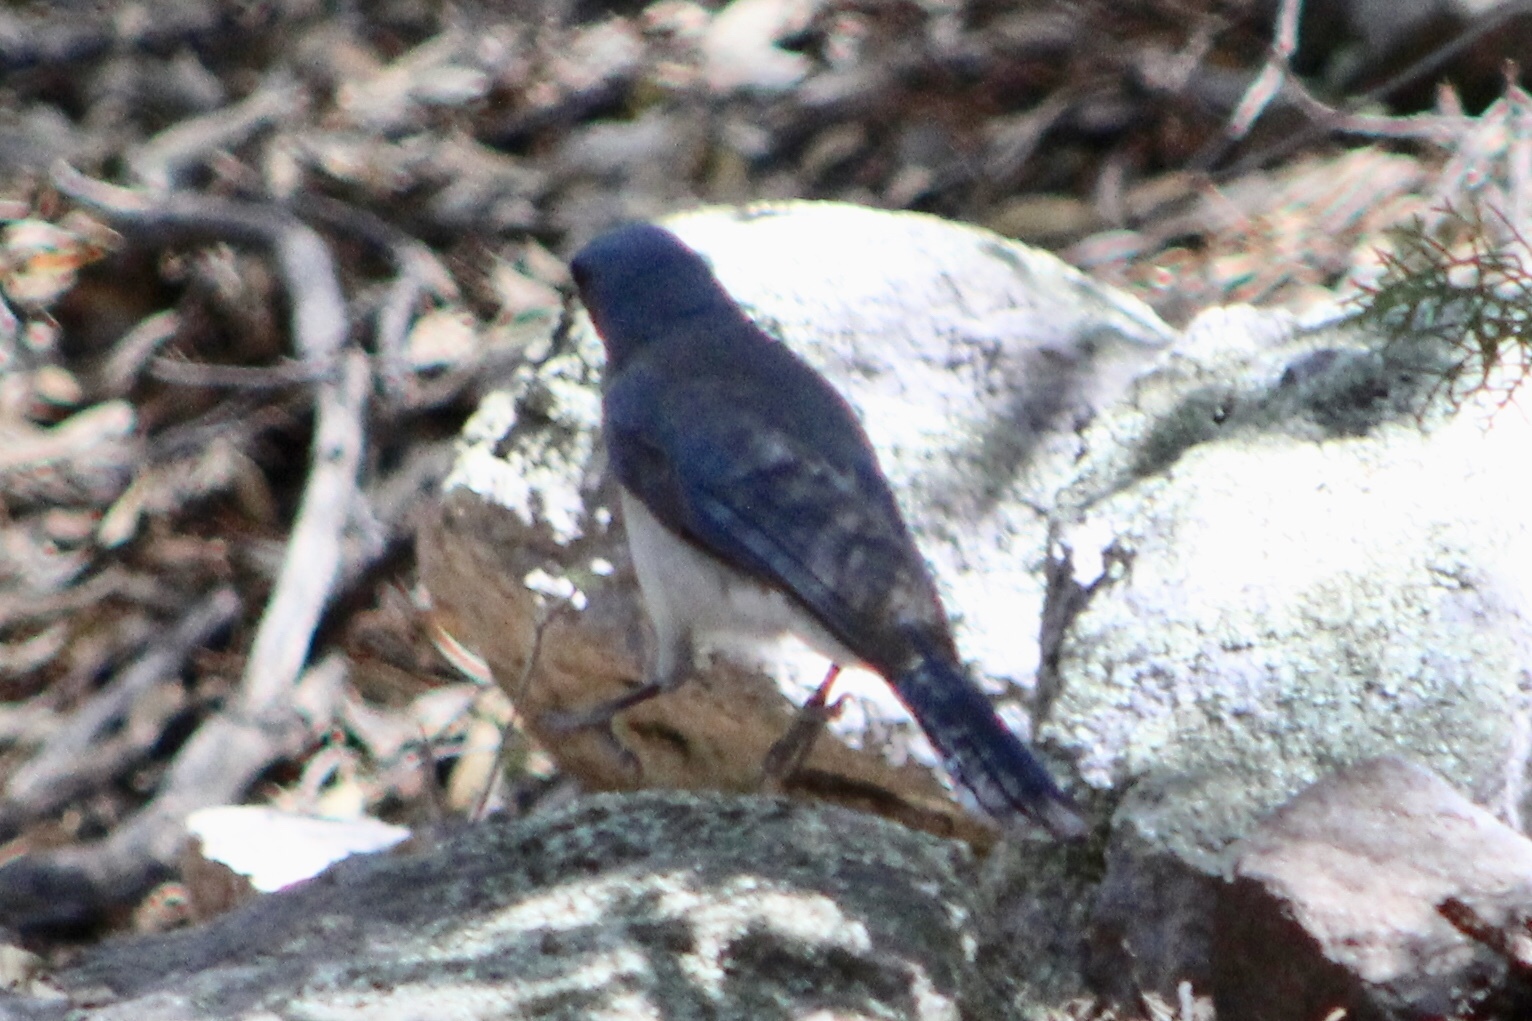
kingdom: Animalia
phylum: Chordata
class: Aves
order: Passeriformes
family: Corvidae
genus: Aphelocoma
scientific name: Aphelocoma wollweberi
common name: Mexican jay
